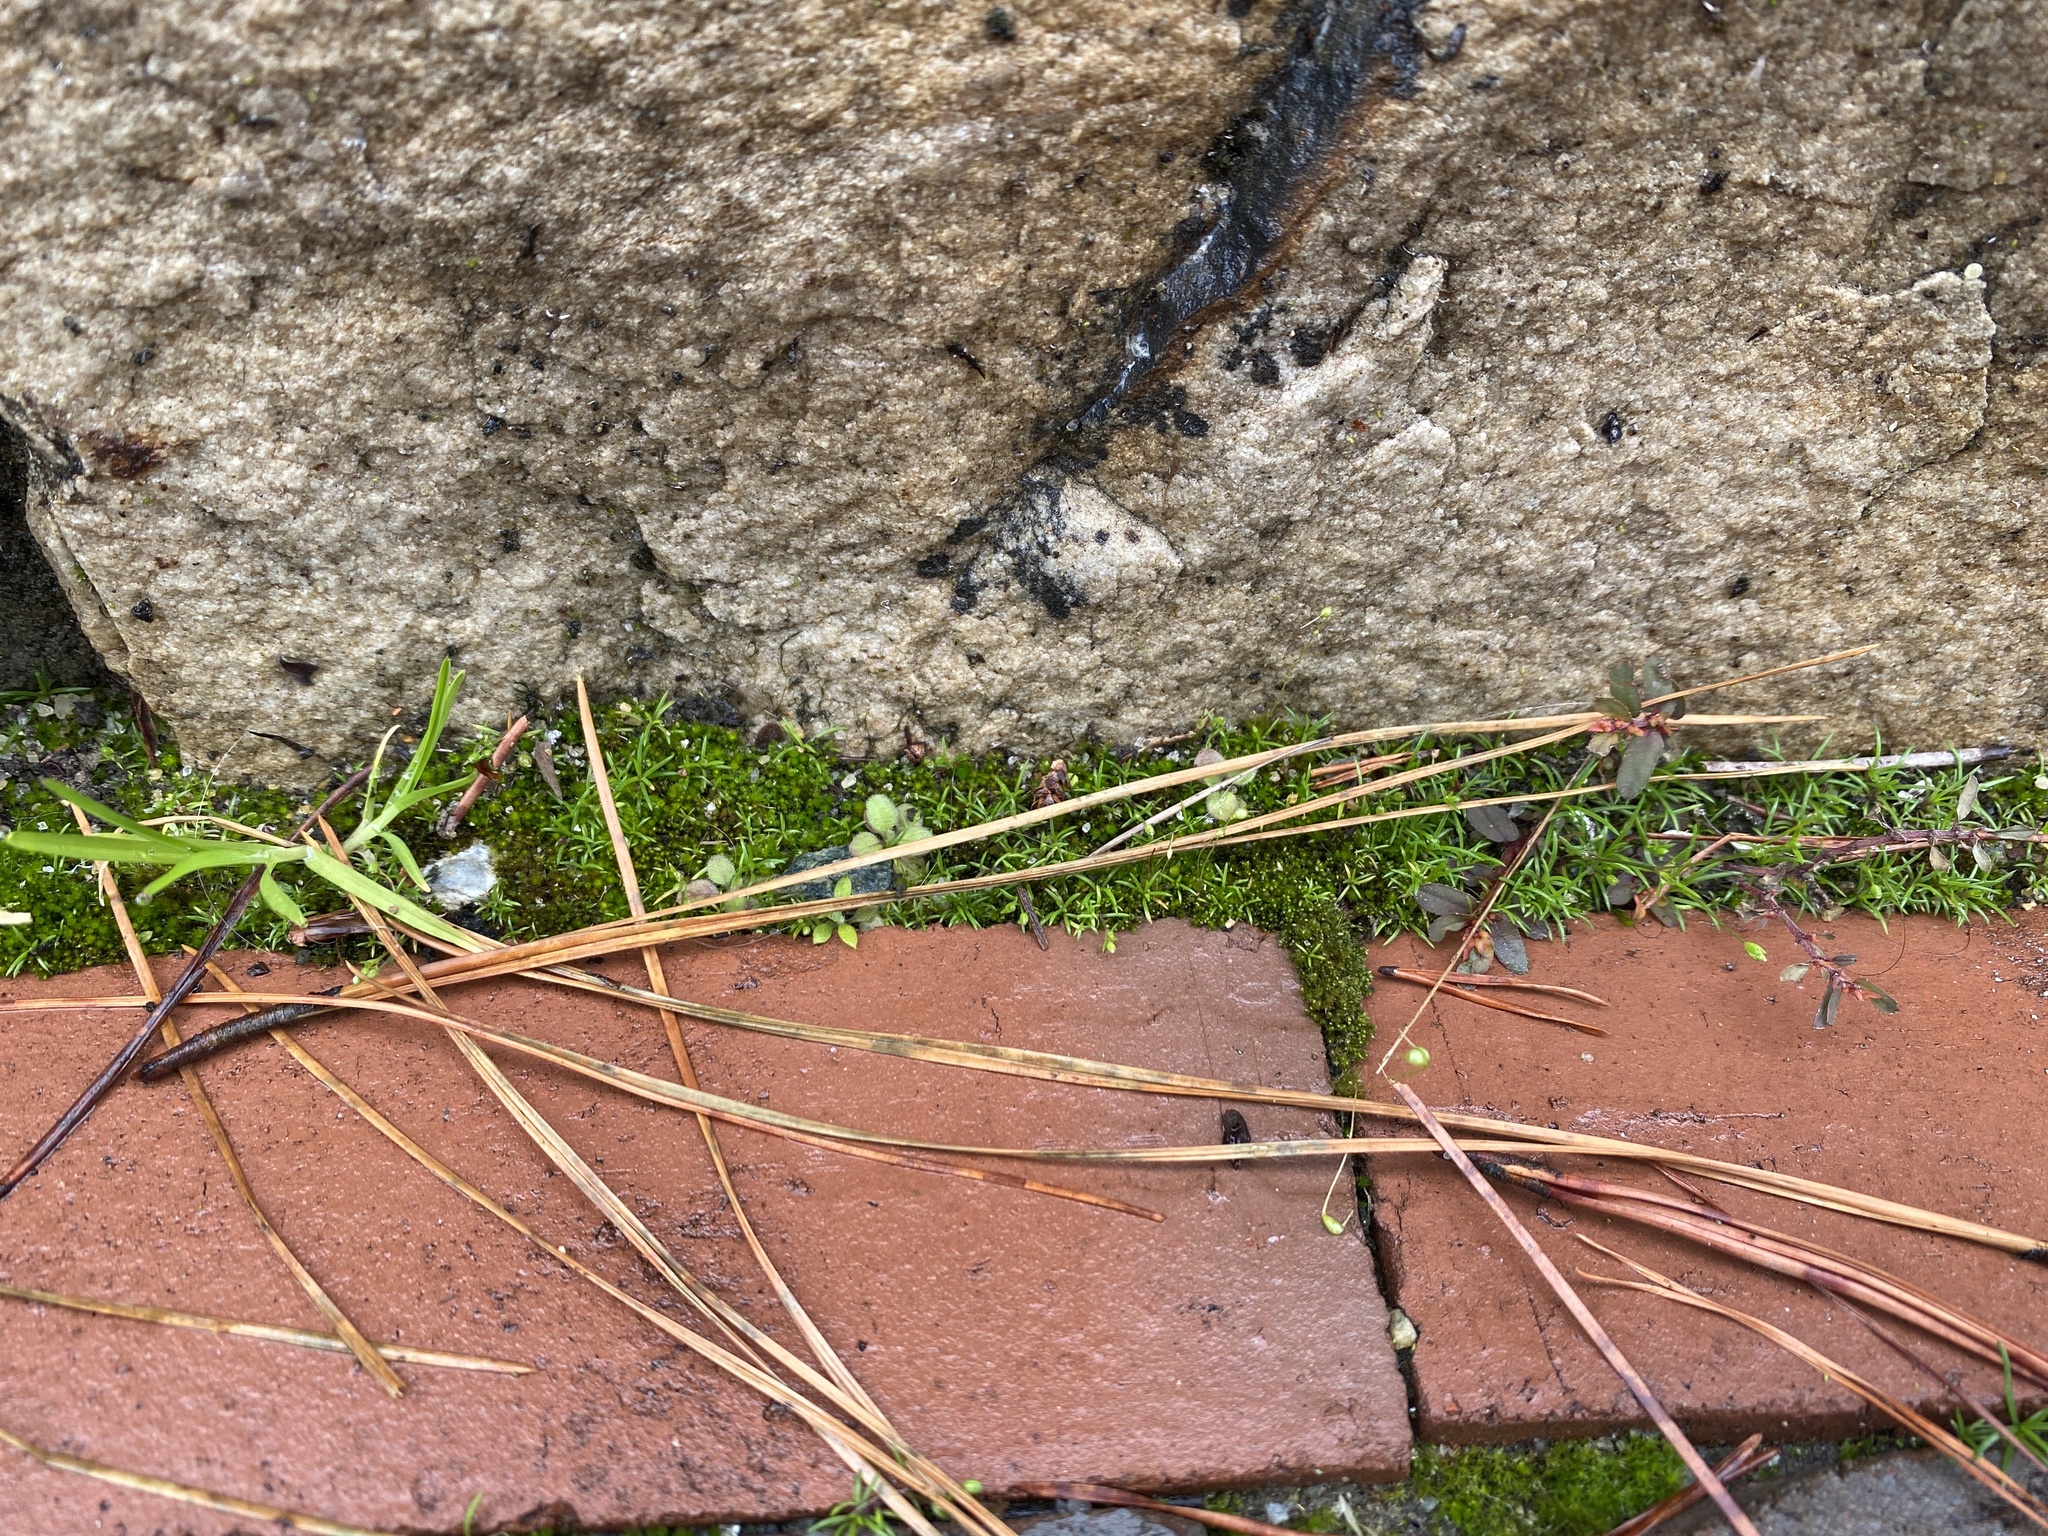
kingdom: Plantae
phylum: Tracheophyta
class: Magnoliopsida
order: Caryophyllales
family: Caryophyllaceae
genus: Sagina
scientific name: Sagina decumbens
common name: Decumbent pearlwort
